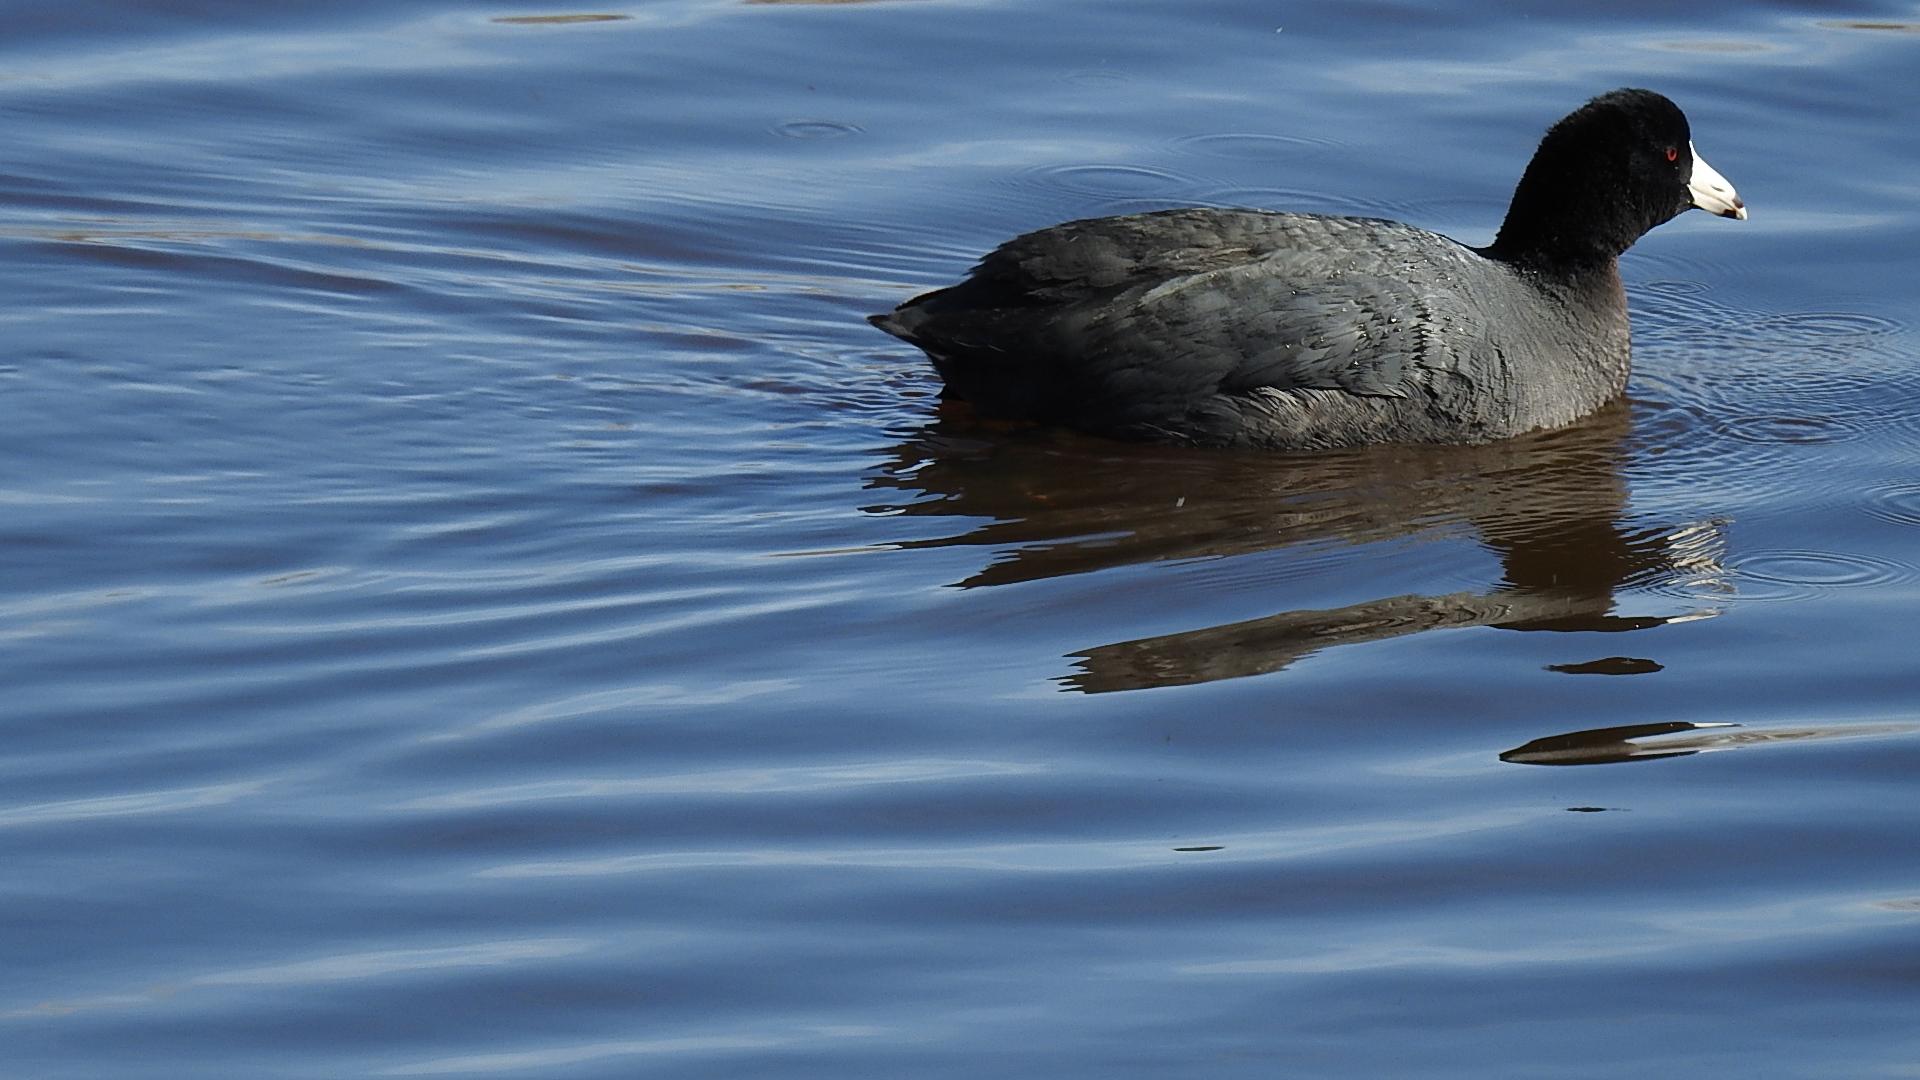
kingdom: Animalia
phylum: Chordata
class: Aves
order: Gruiformes
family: Rallidae
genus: Fulica
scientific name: Fulica americana
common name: American coot
